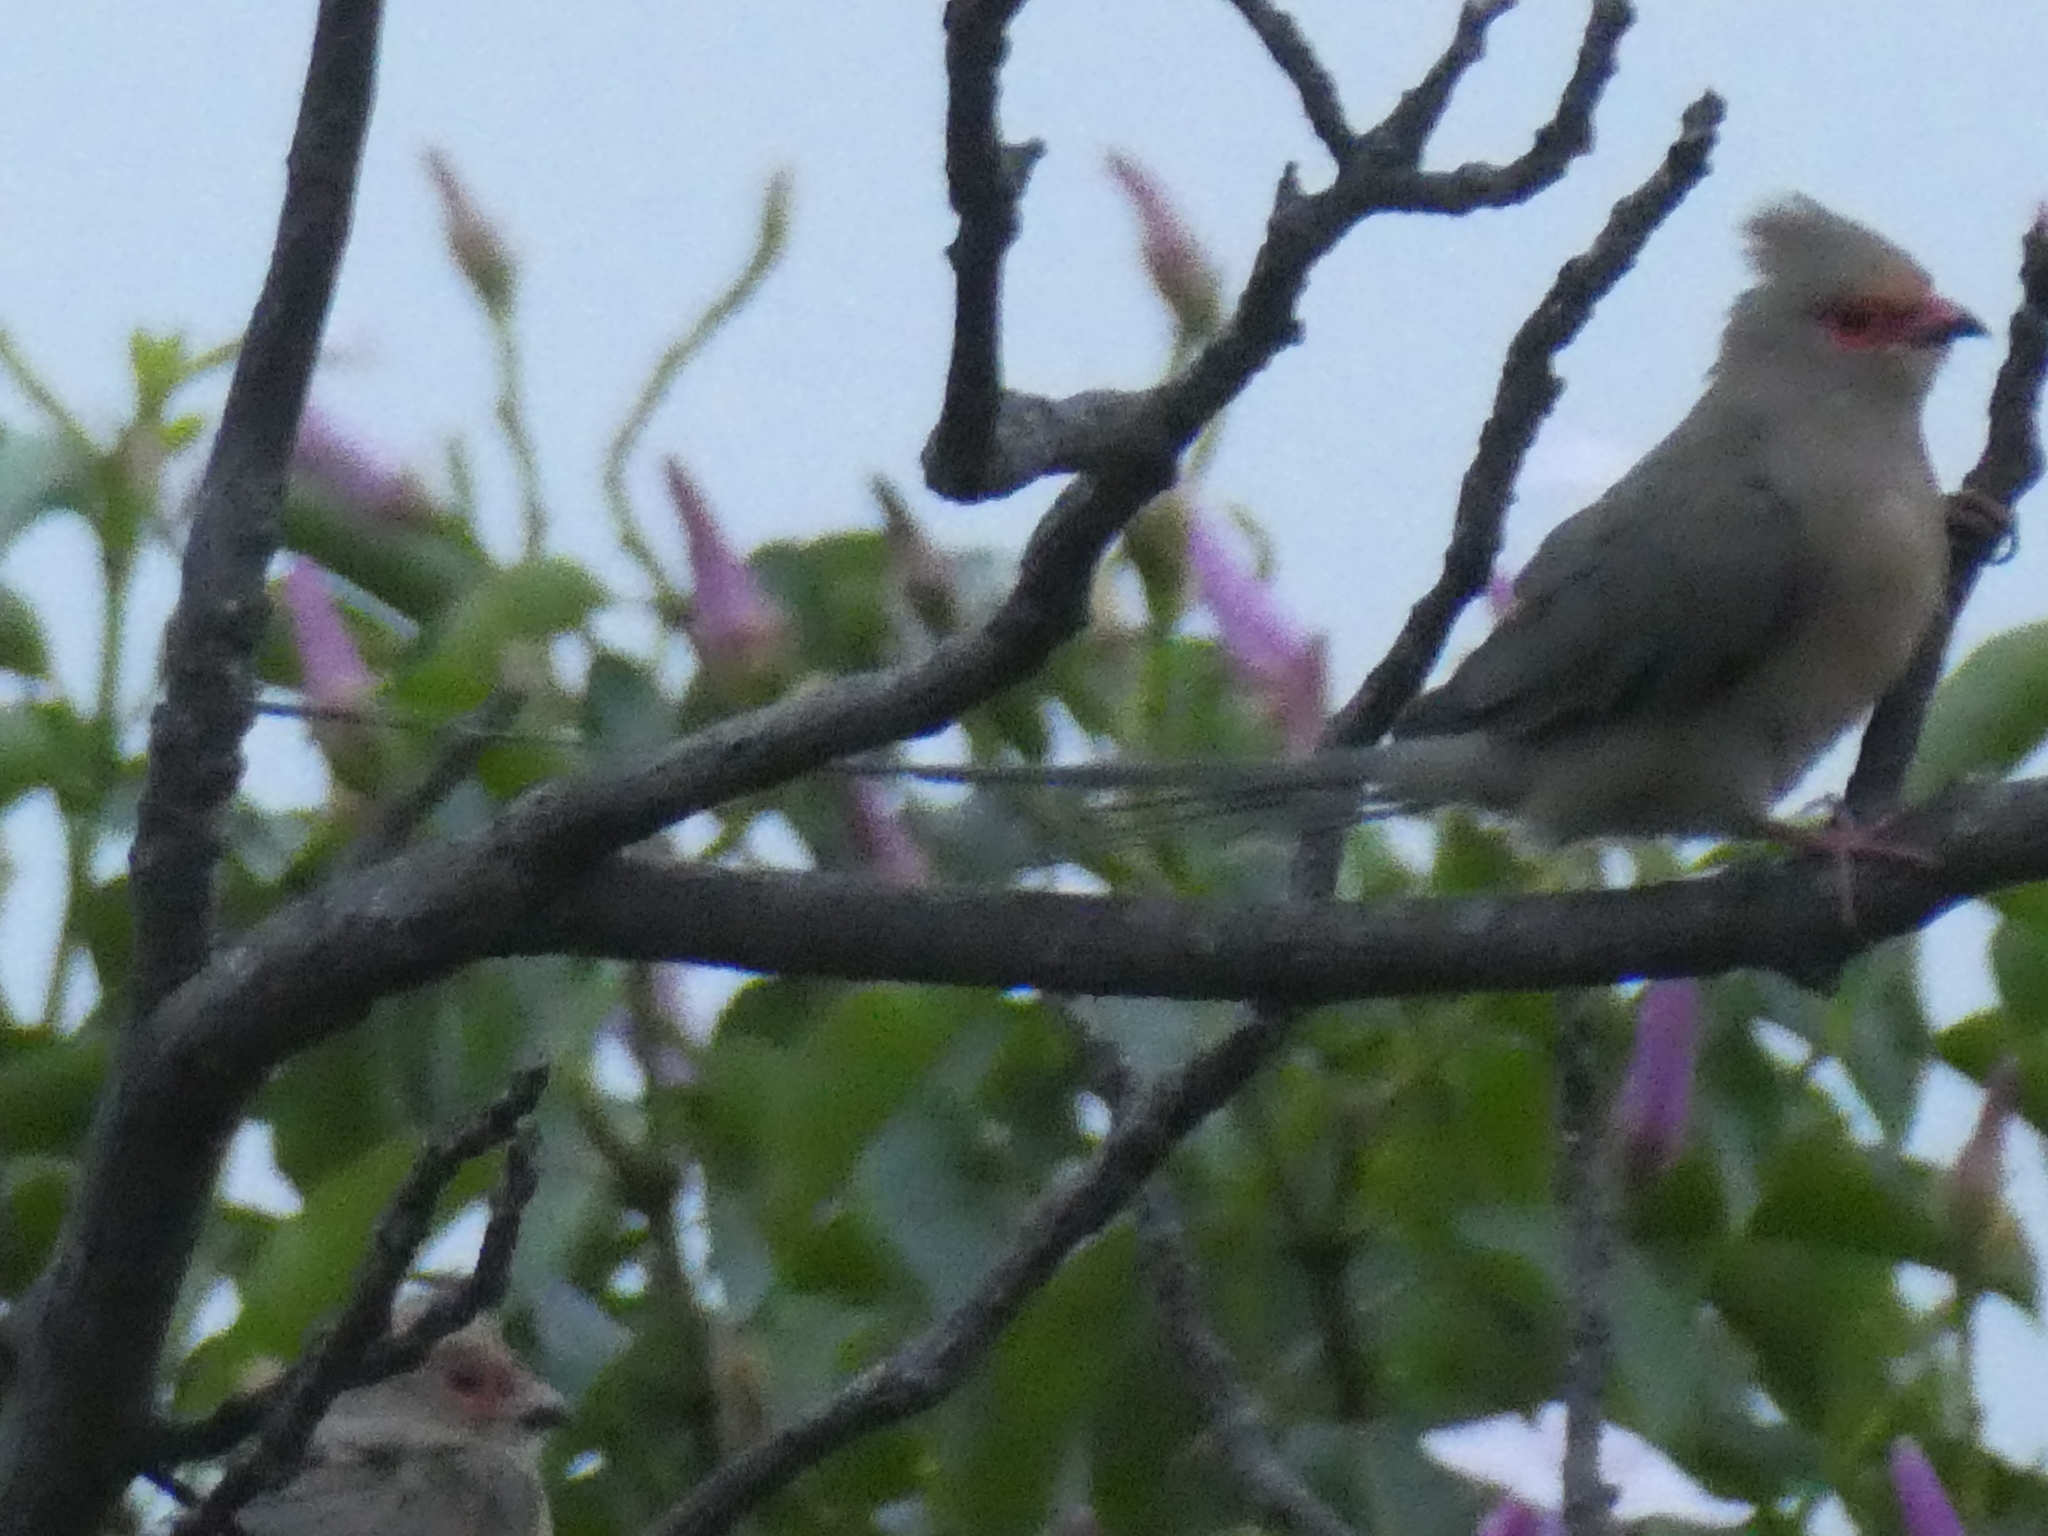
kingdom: Animalia
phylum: Chordata
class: Aves
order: Coliiformes
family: Coliidae
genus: Urocolius
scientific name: Urocolius indicus
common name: Red-faced mousebird
